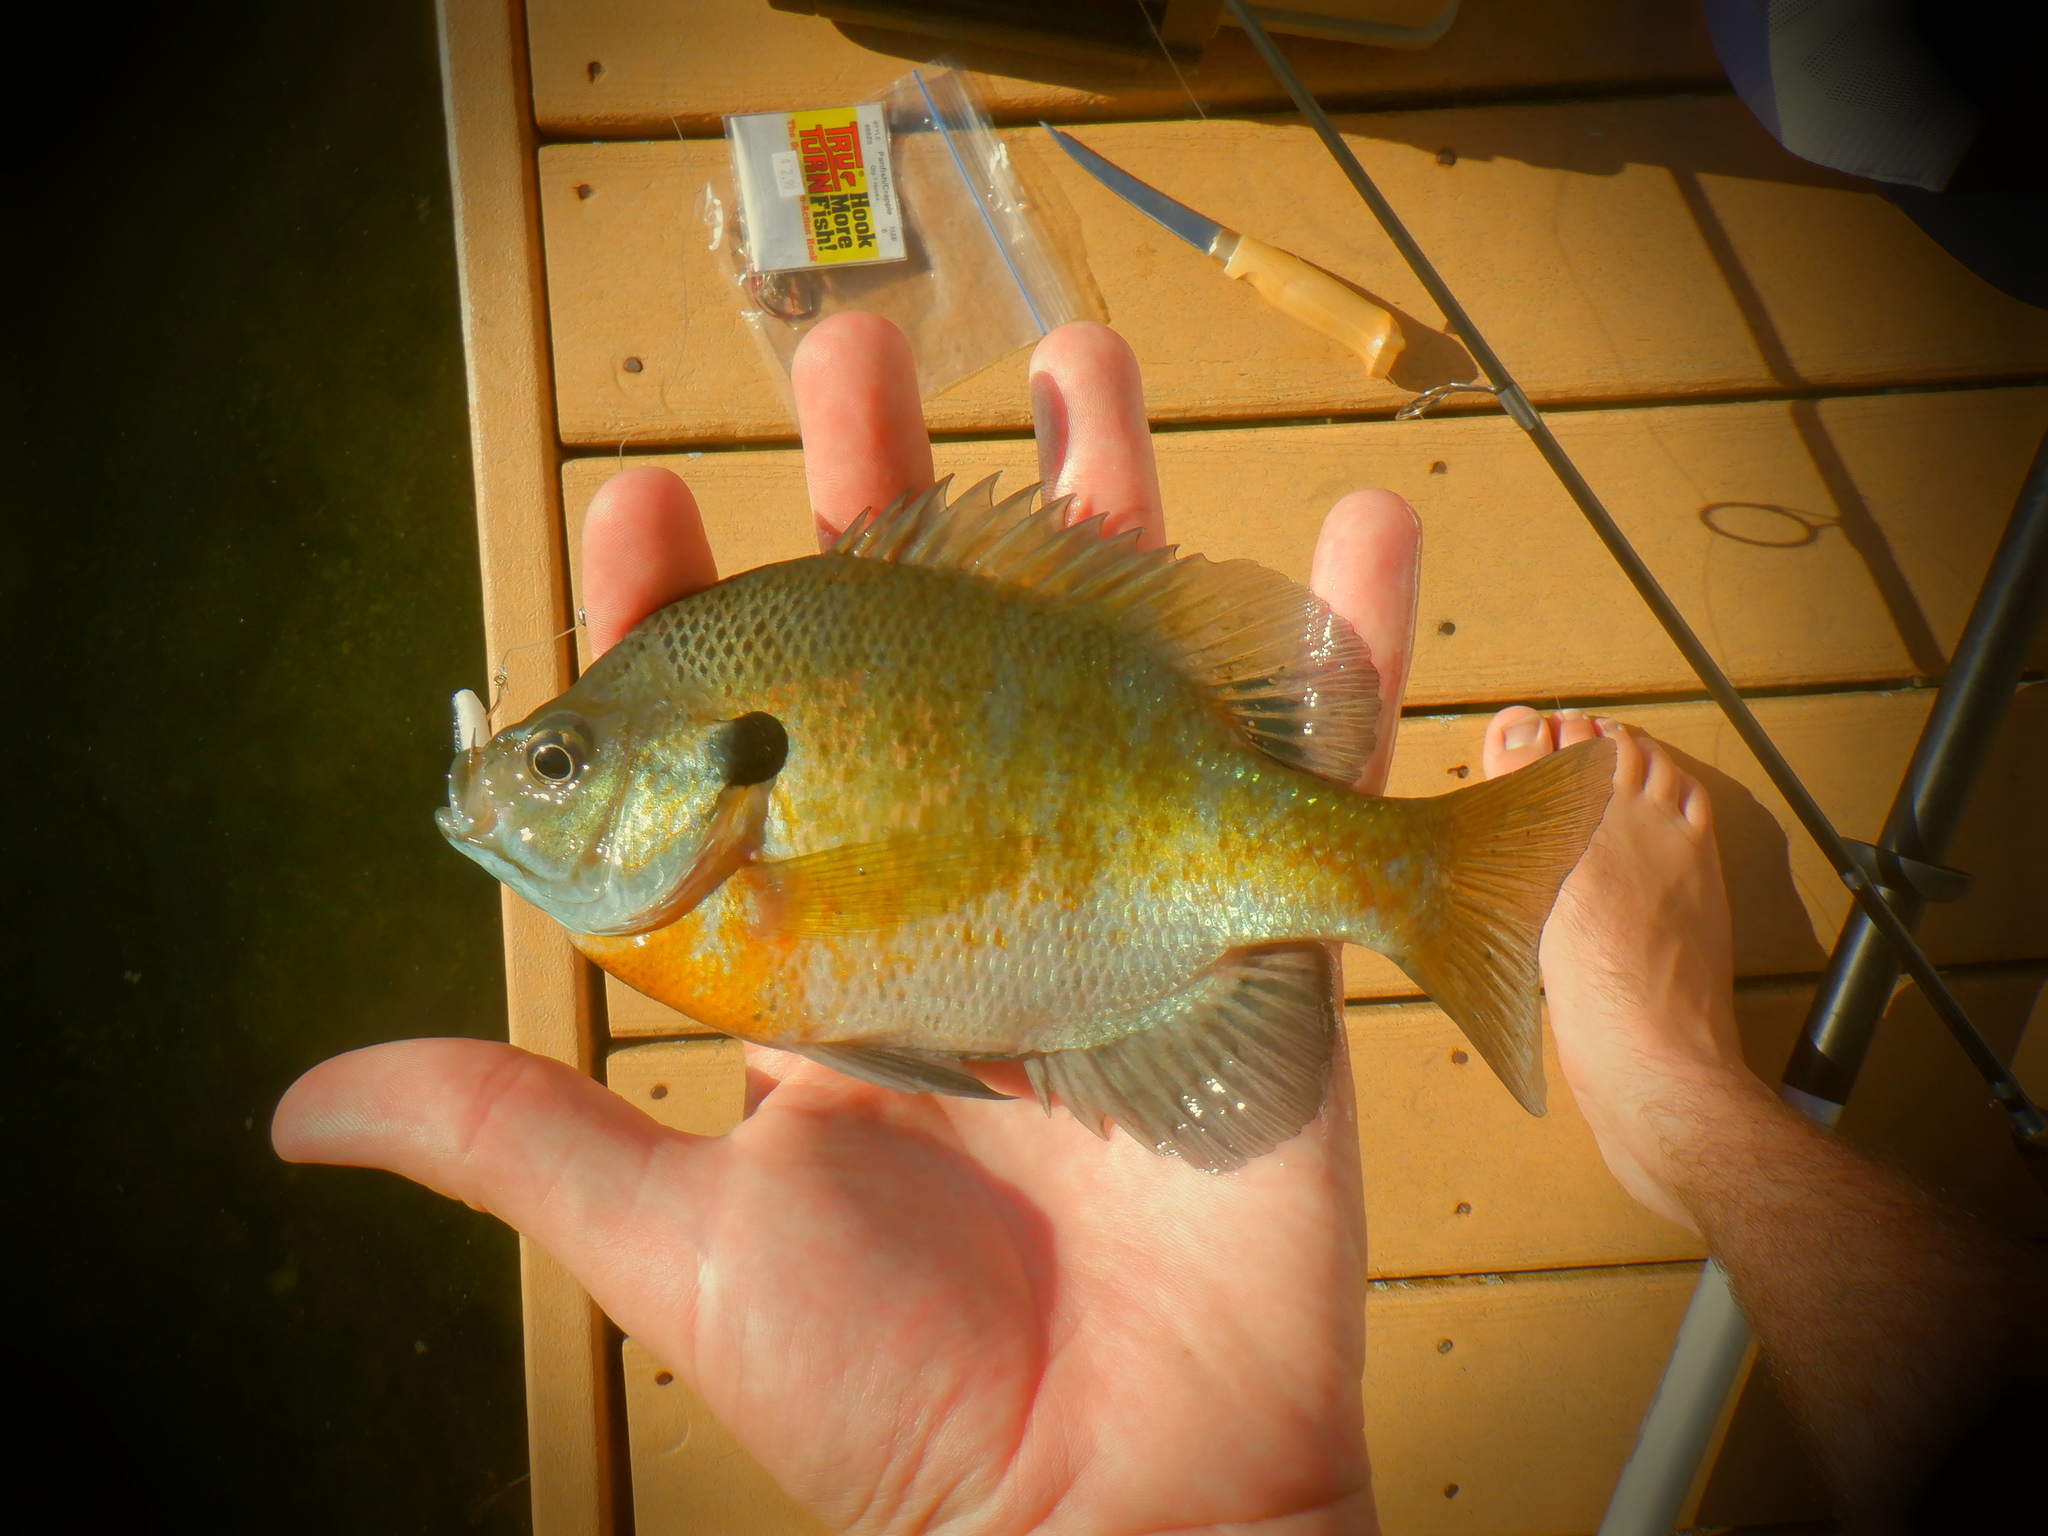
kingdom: Animalia
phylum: Chordata
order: Perciformes
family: Centrarchidae
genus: Lepomis
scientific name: Lepomis macrochirus
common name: Bluegill
